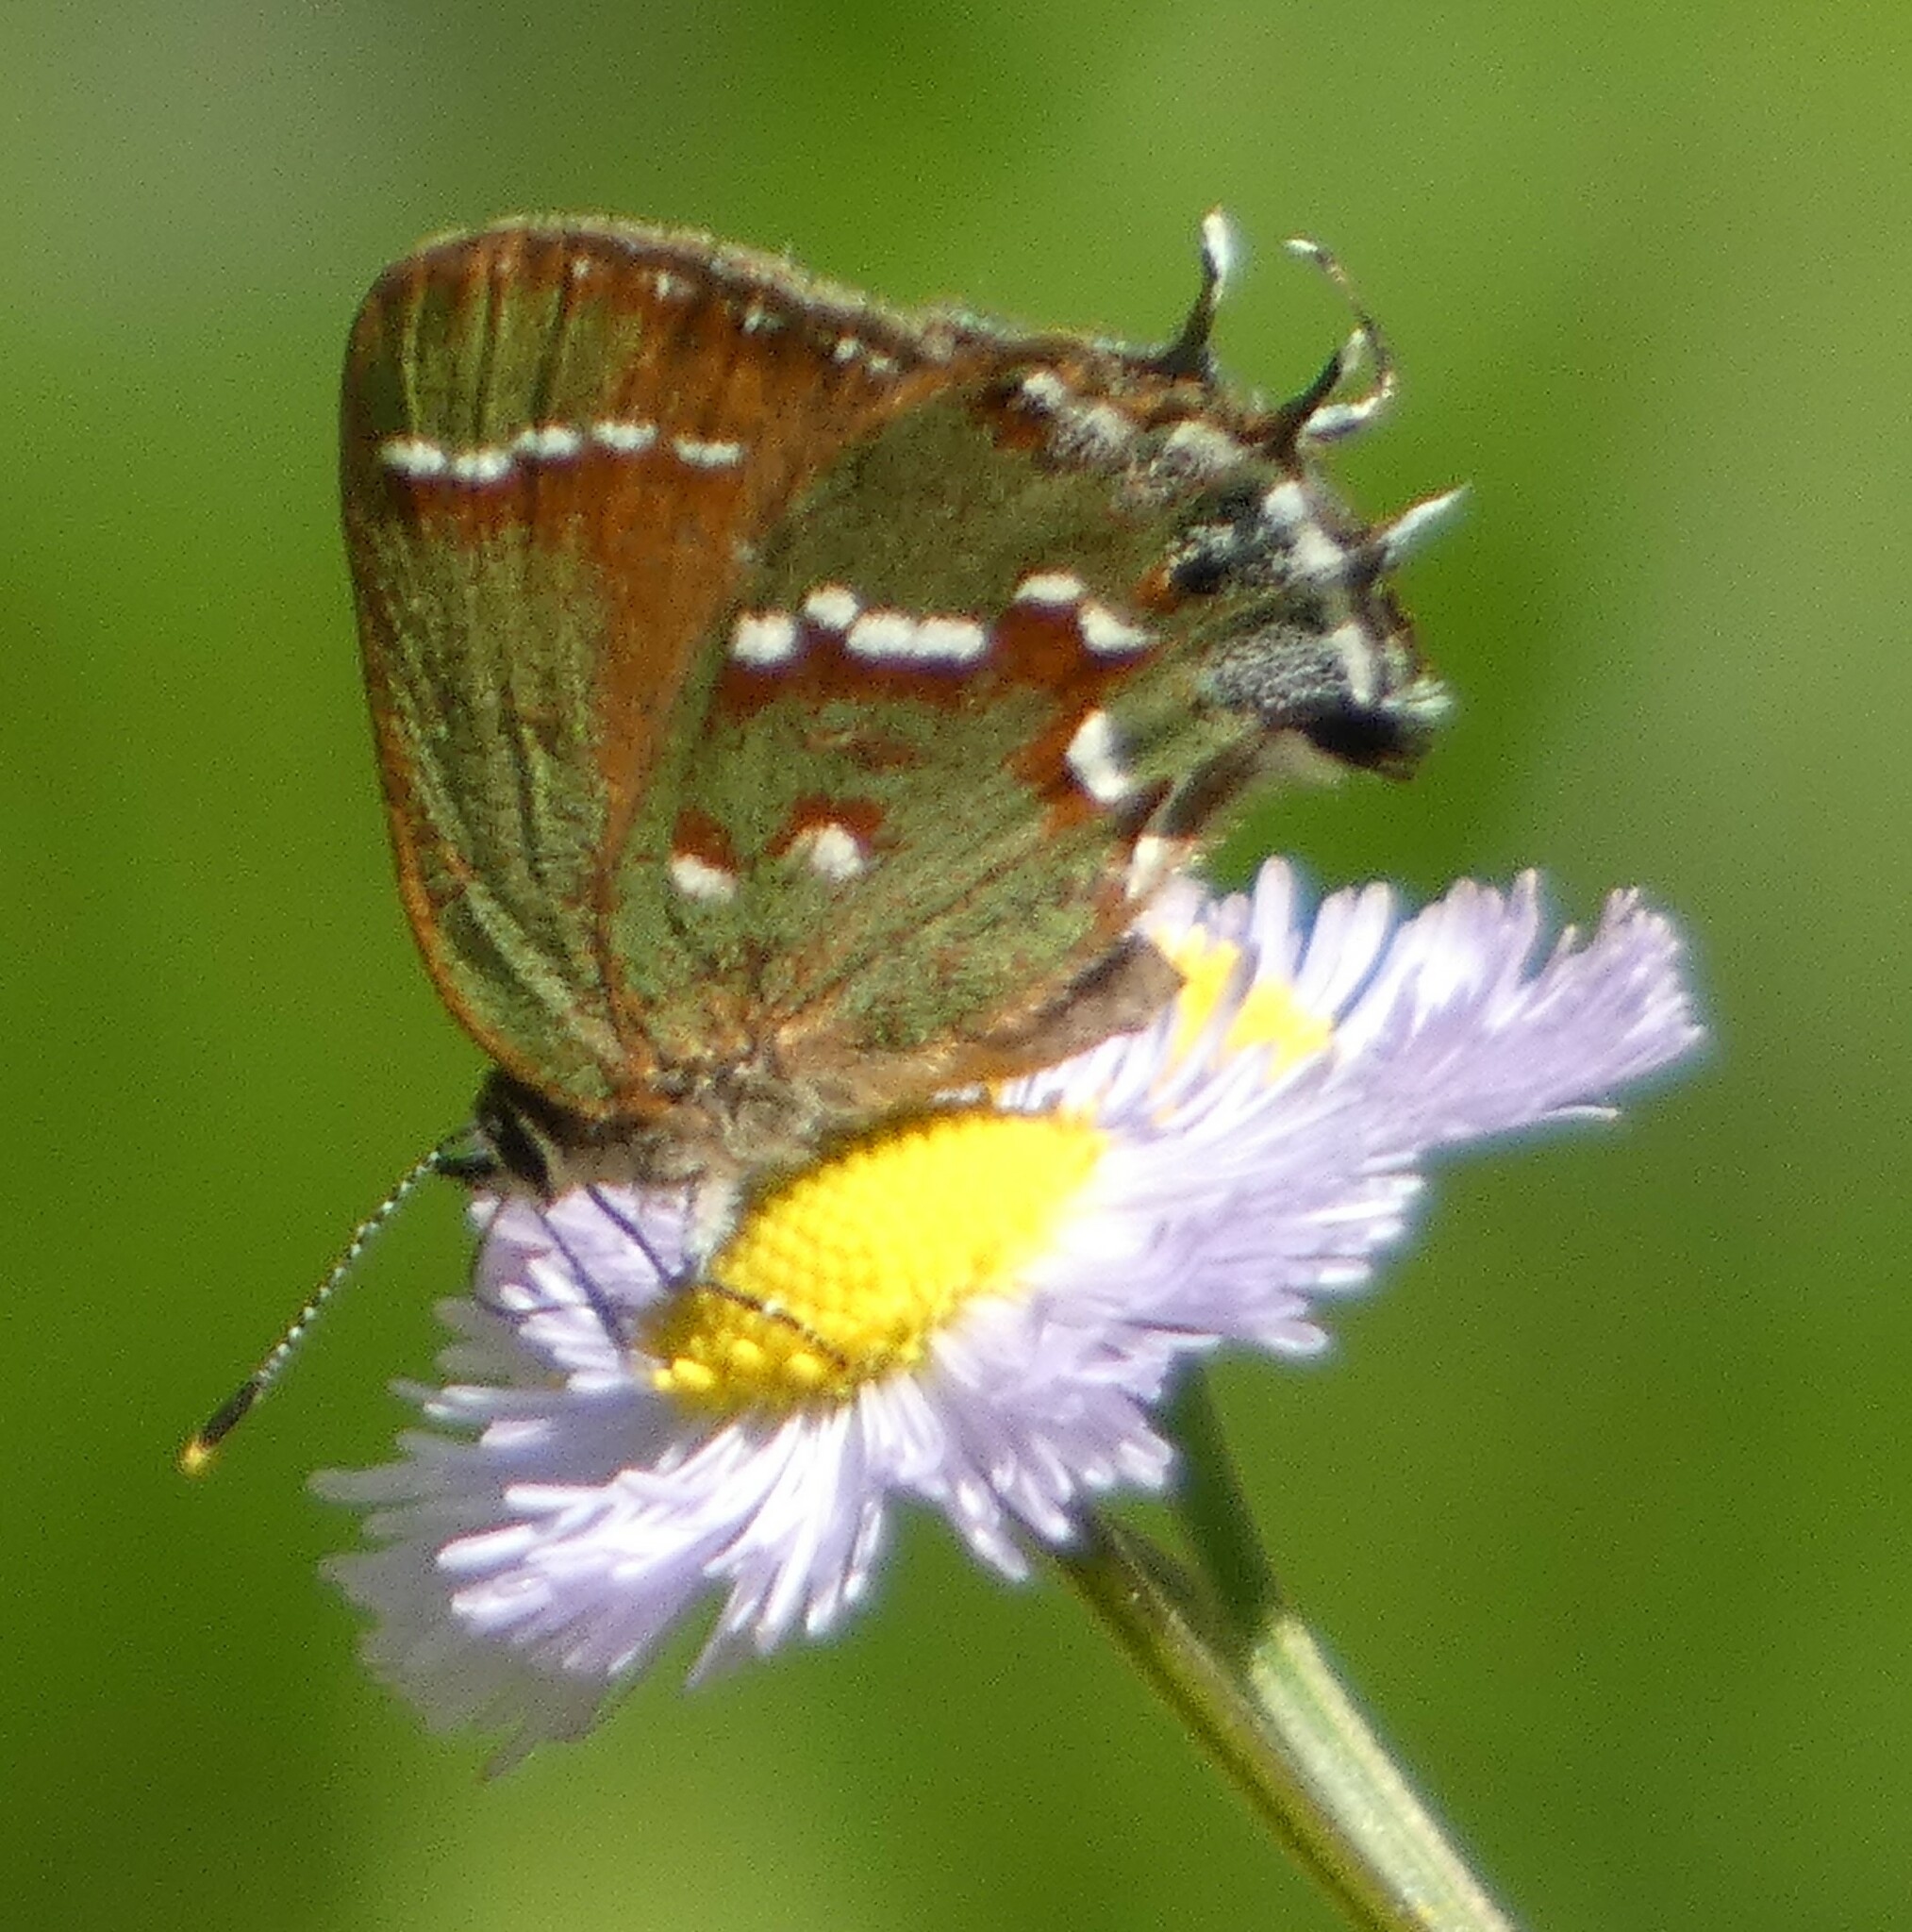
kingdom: Animalia
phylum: Arthropoda
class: Insecta
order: Lepidoptera
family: Lycaenidae
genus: Mitoura
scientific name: Mitoura gryneus
